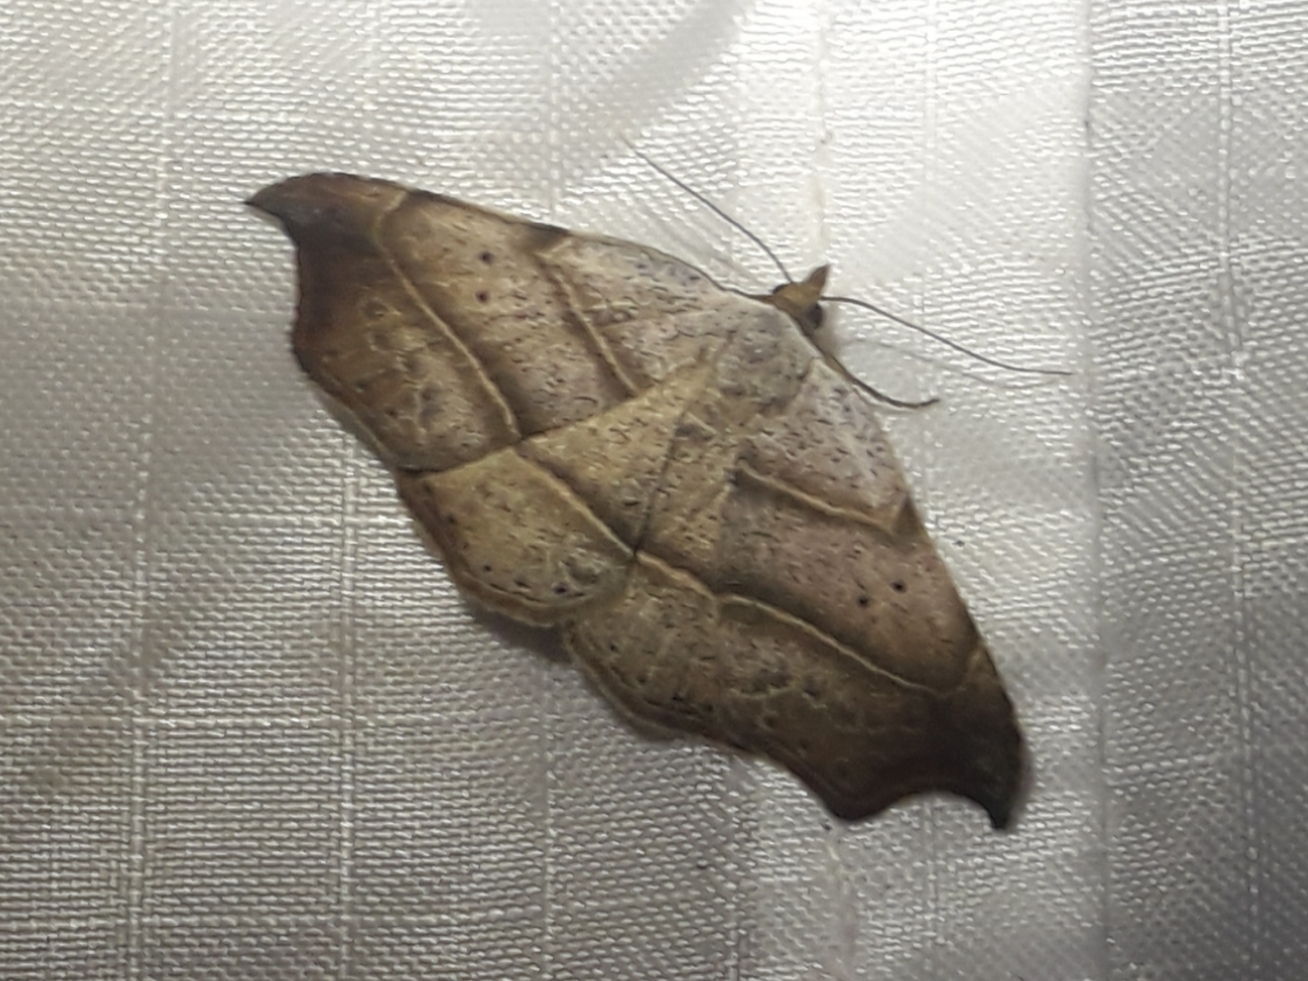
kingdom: Animalia
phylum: Arthropoda
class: Insecta
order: Lepidoptera
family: Erebidae
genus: Laspeyria
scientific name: Laspeyria flexula
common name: Beautiful hook-tip
